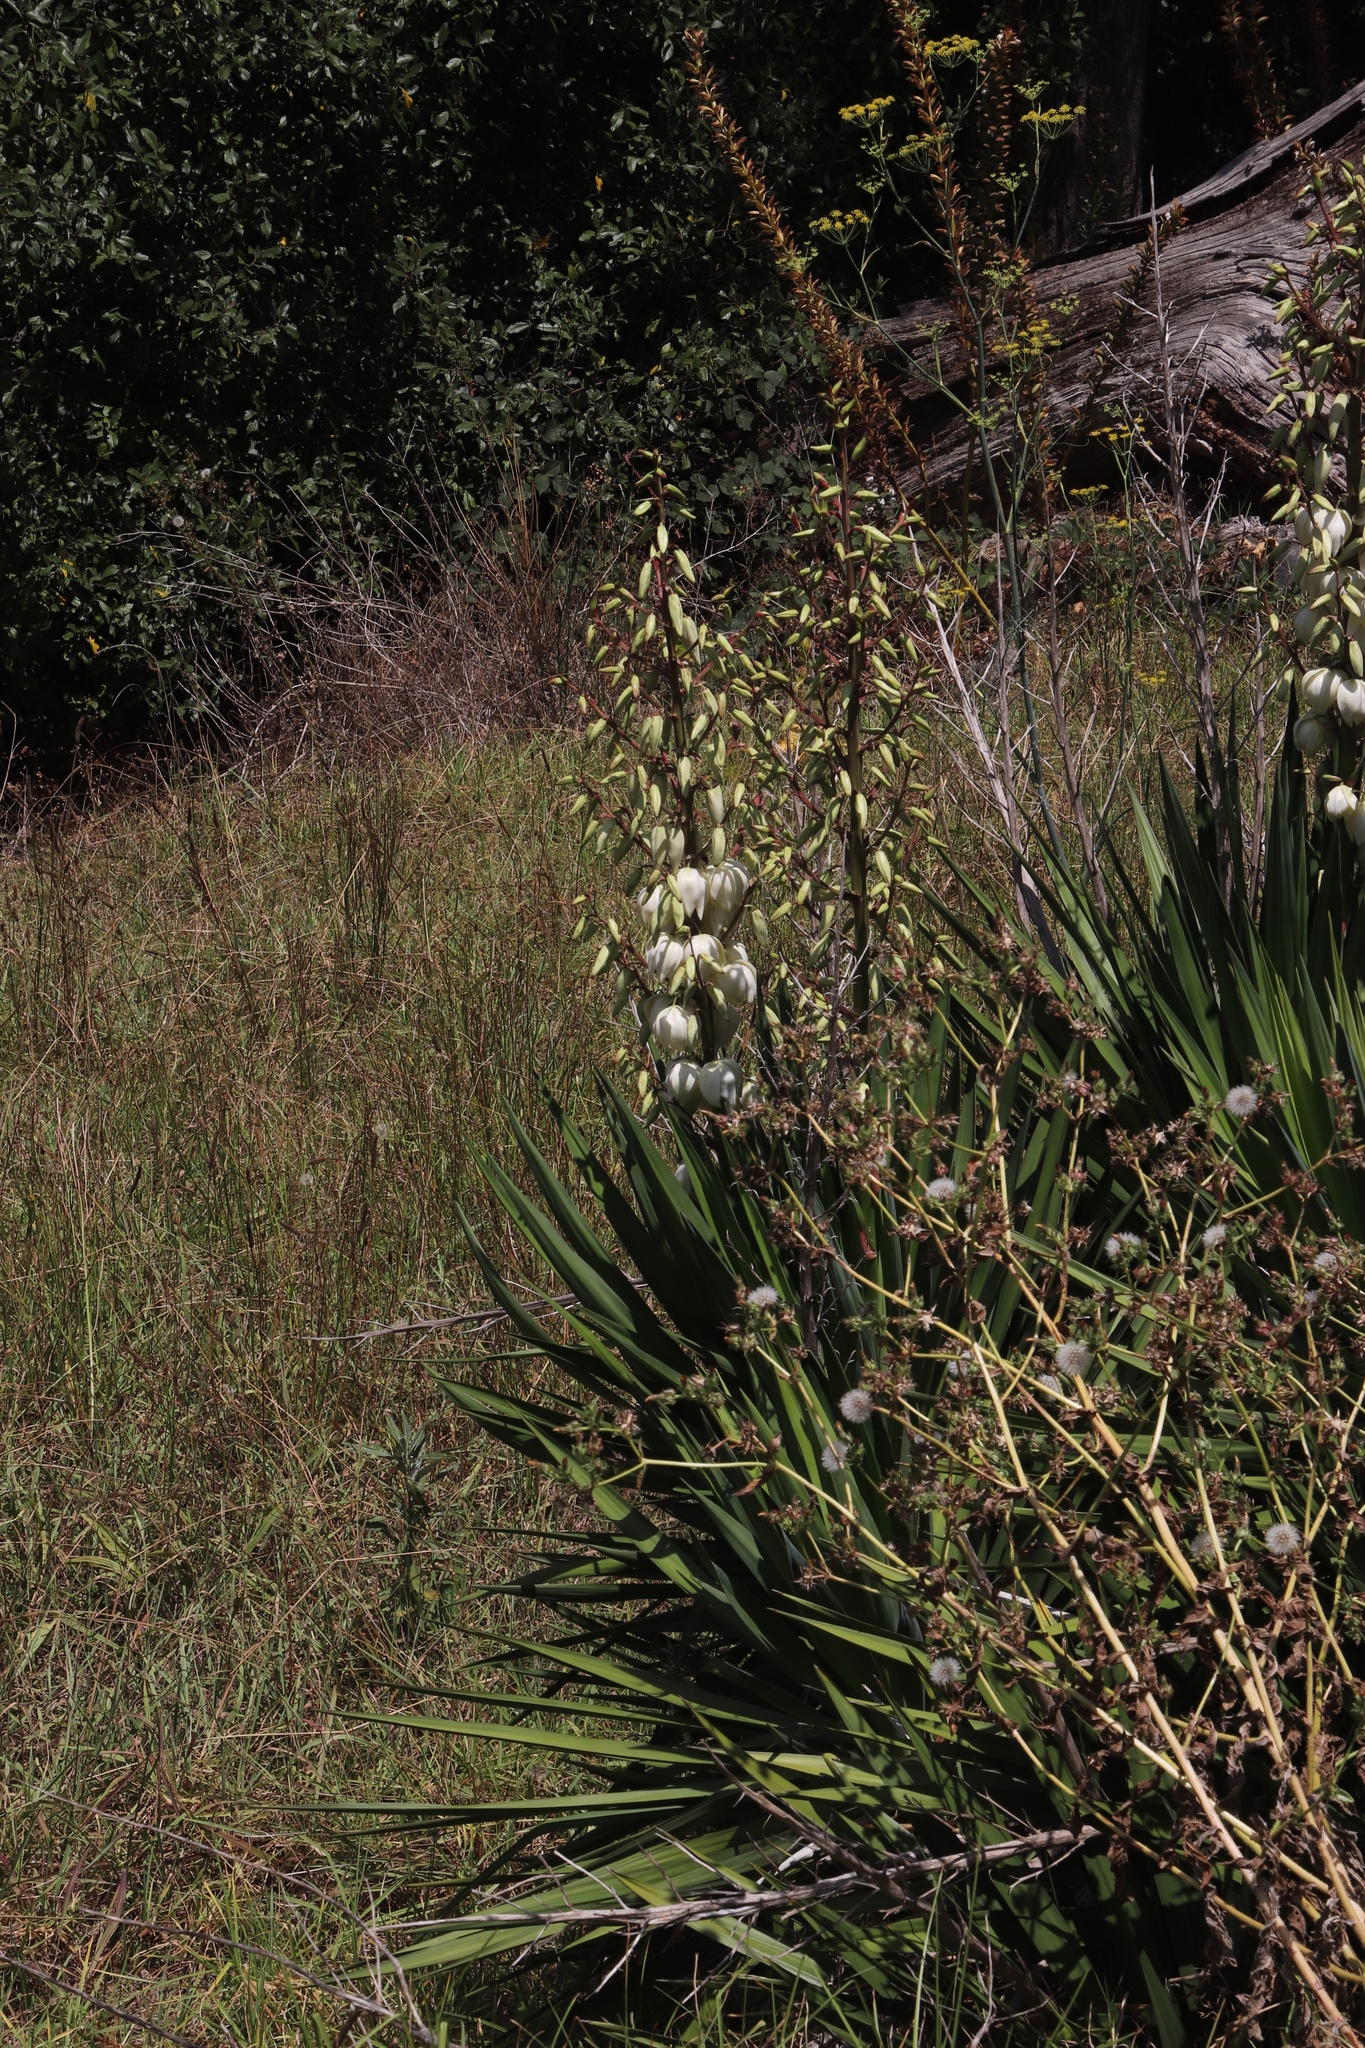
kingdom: Plantae
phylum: Tracheophyta
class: Liliopsida
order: Asparagales
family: Asparagaceae
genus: Yucca
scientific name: Yucca gloriosa
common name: Spanish-dagger
